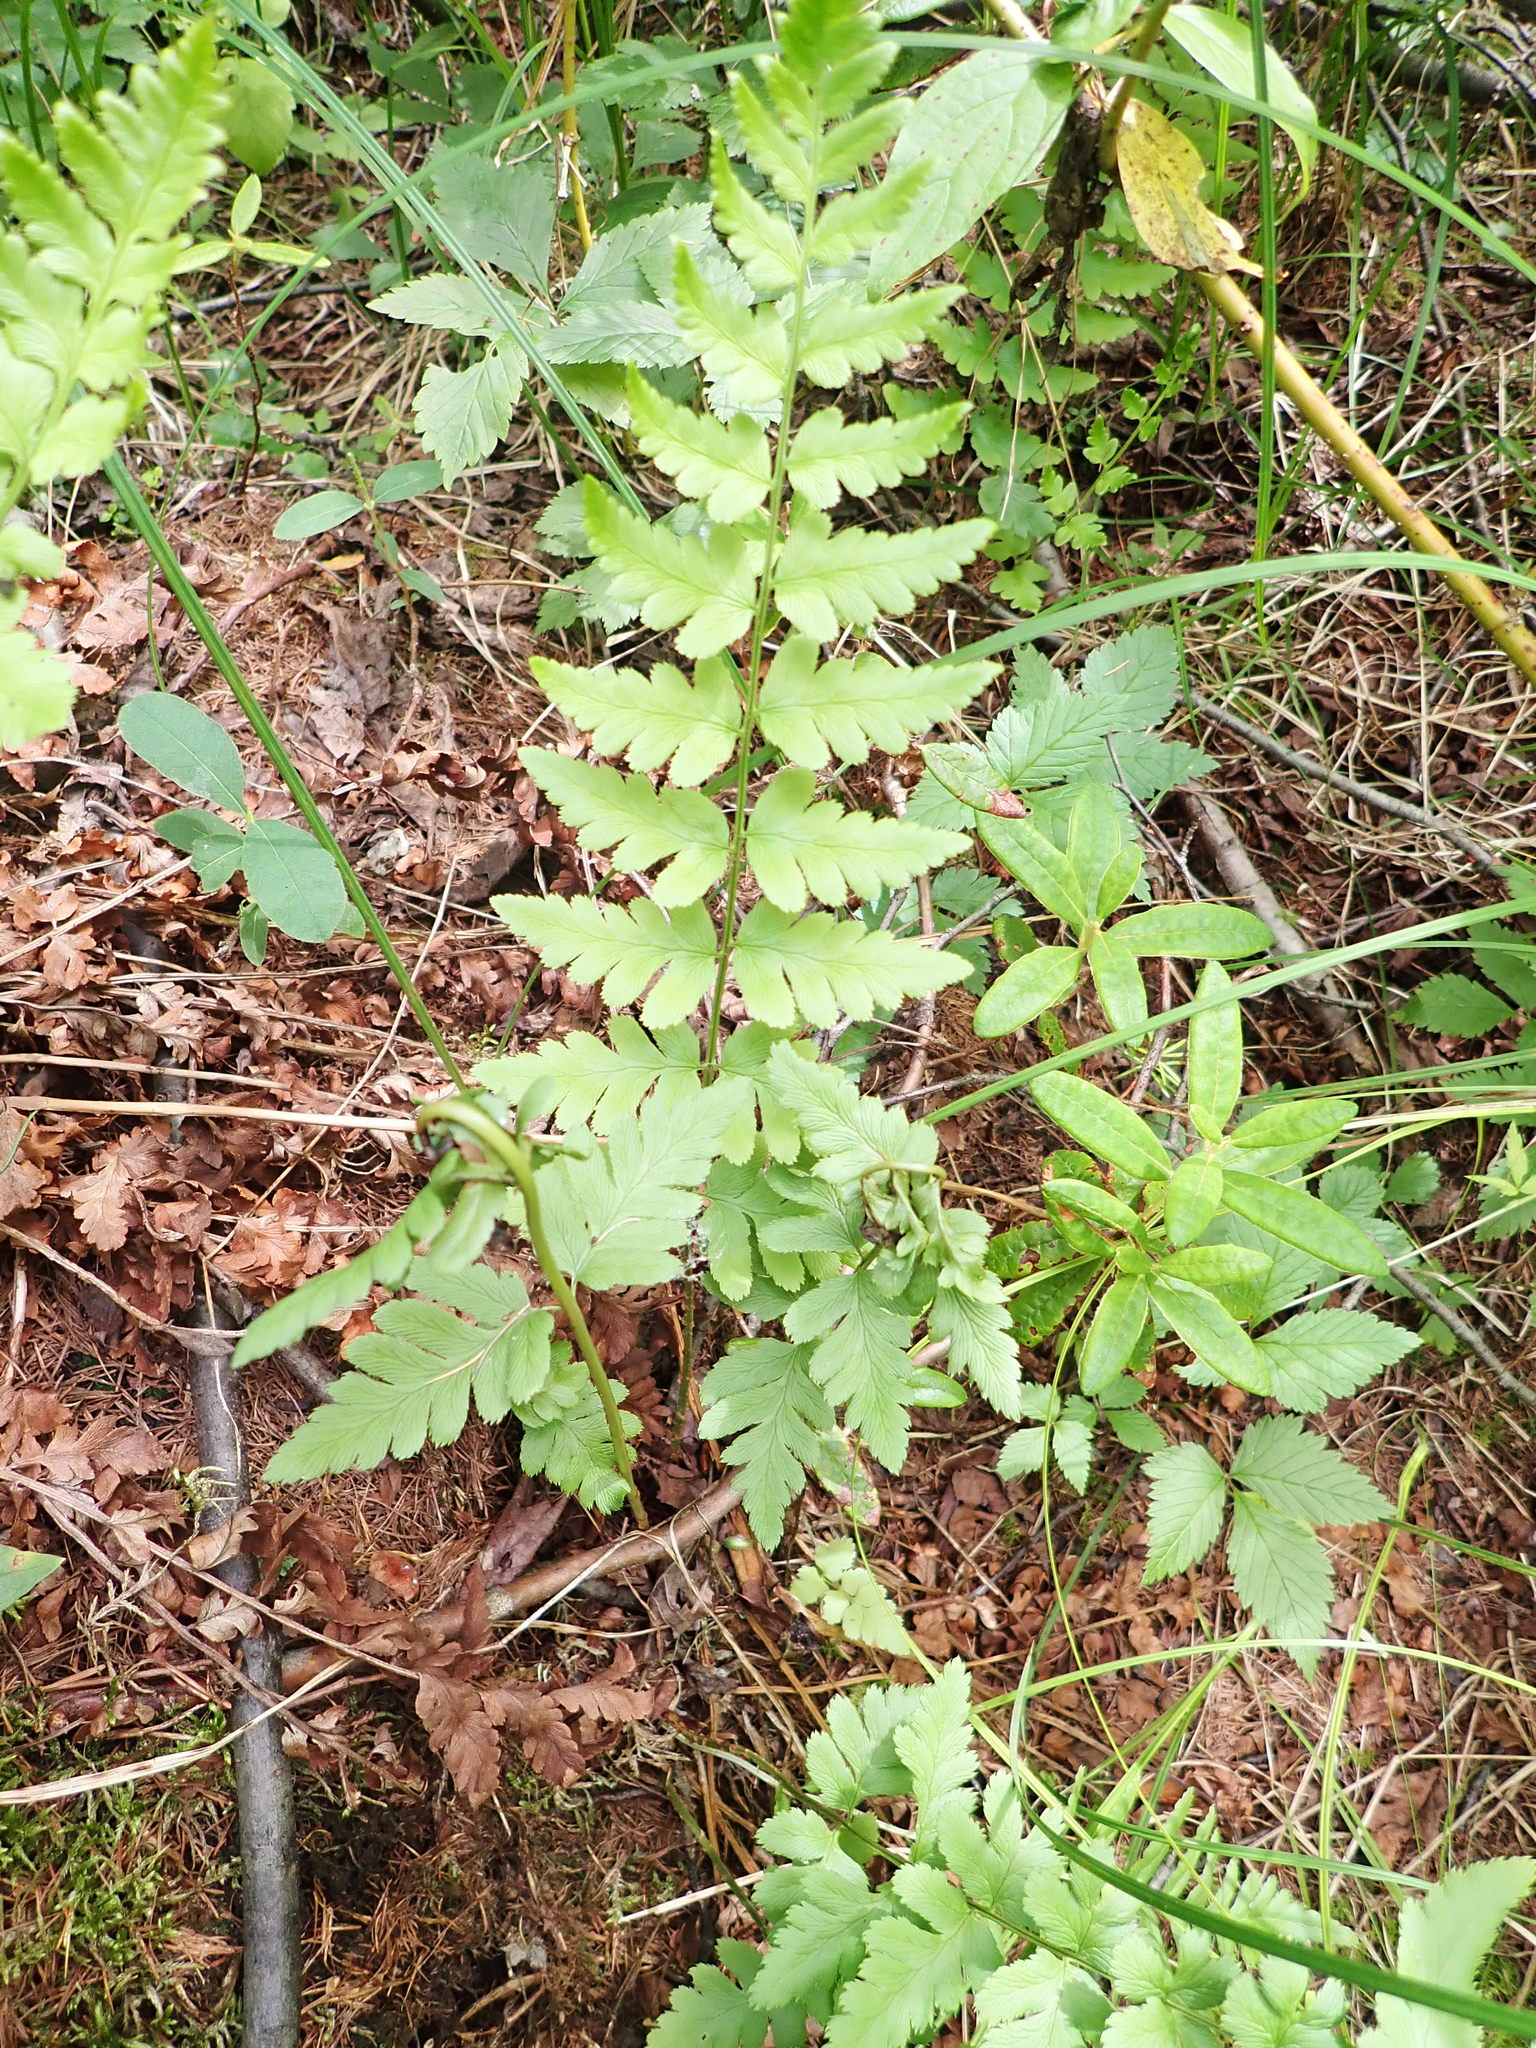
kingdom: Plantae
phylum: Tracheophyta
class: Polypodiopsida
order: Polypodiales
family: Dryopteridaceae
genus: Dryopteris
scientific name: Dryopteris cristata
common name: Crested wood fern
